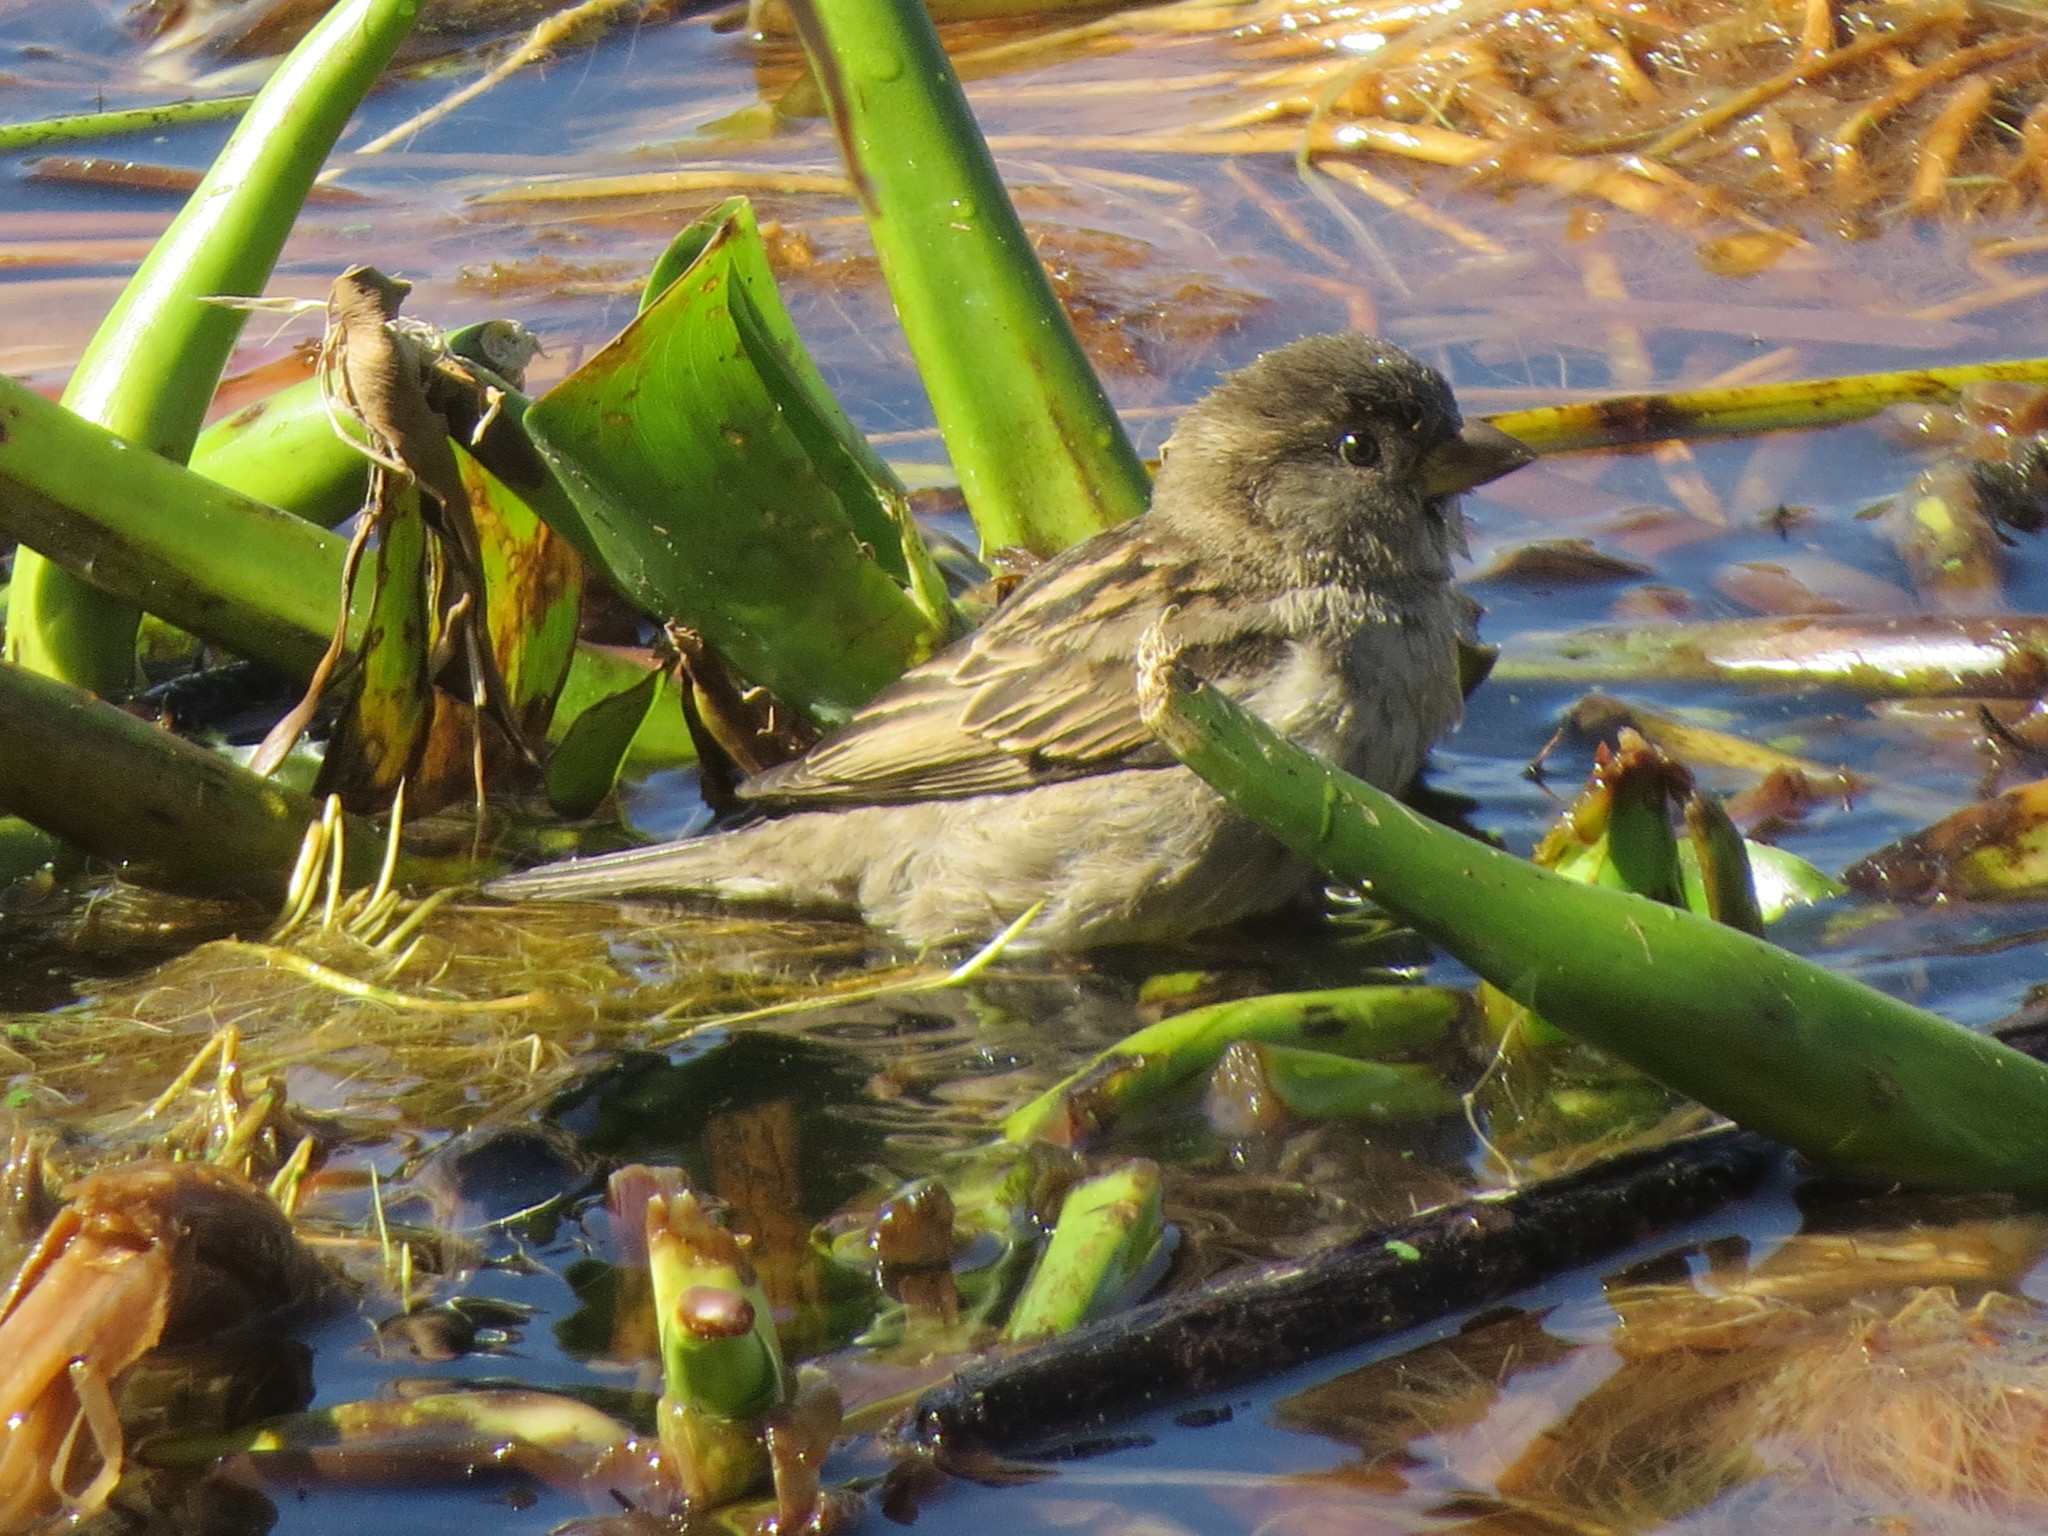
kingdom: Animalia
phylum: Chordata
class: Aves
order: Passeriformes
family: Passeridae
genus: Passer
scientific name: Passer domesticus
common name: House sparrow
